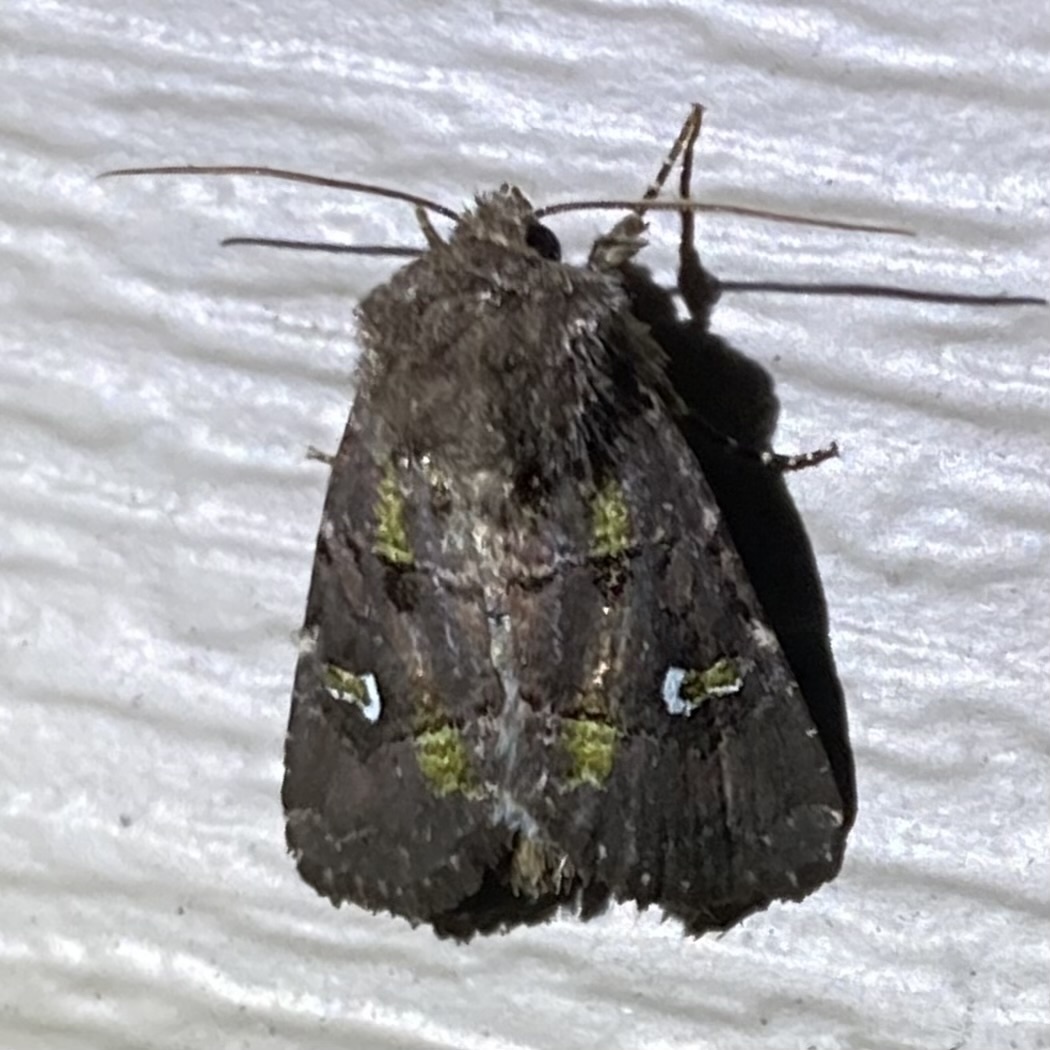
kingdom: Animalia
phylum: Arthropoda
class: Insecta
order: Lepidoptera
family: Noctuidae
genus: Lacinipolia
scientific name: Lacinipolia renigera
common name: Kidney-spotted minor
